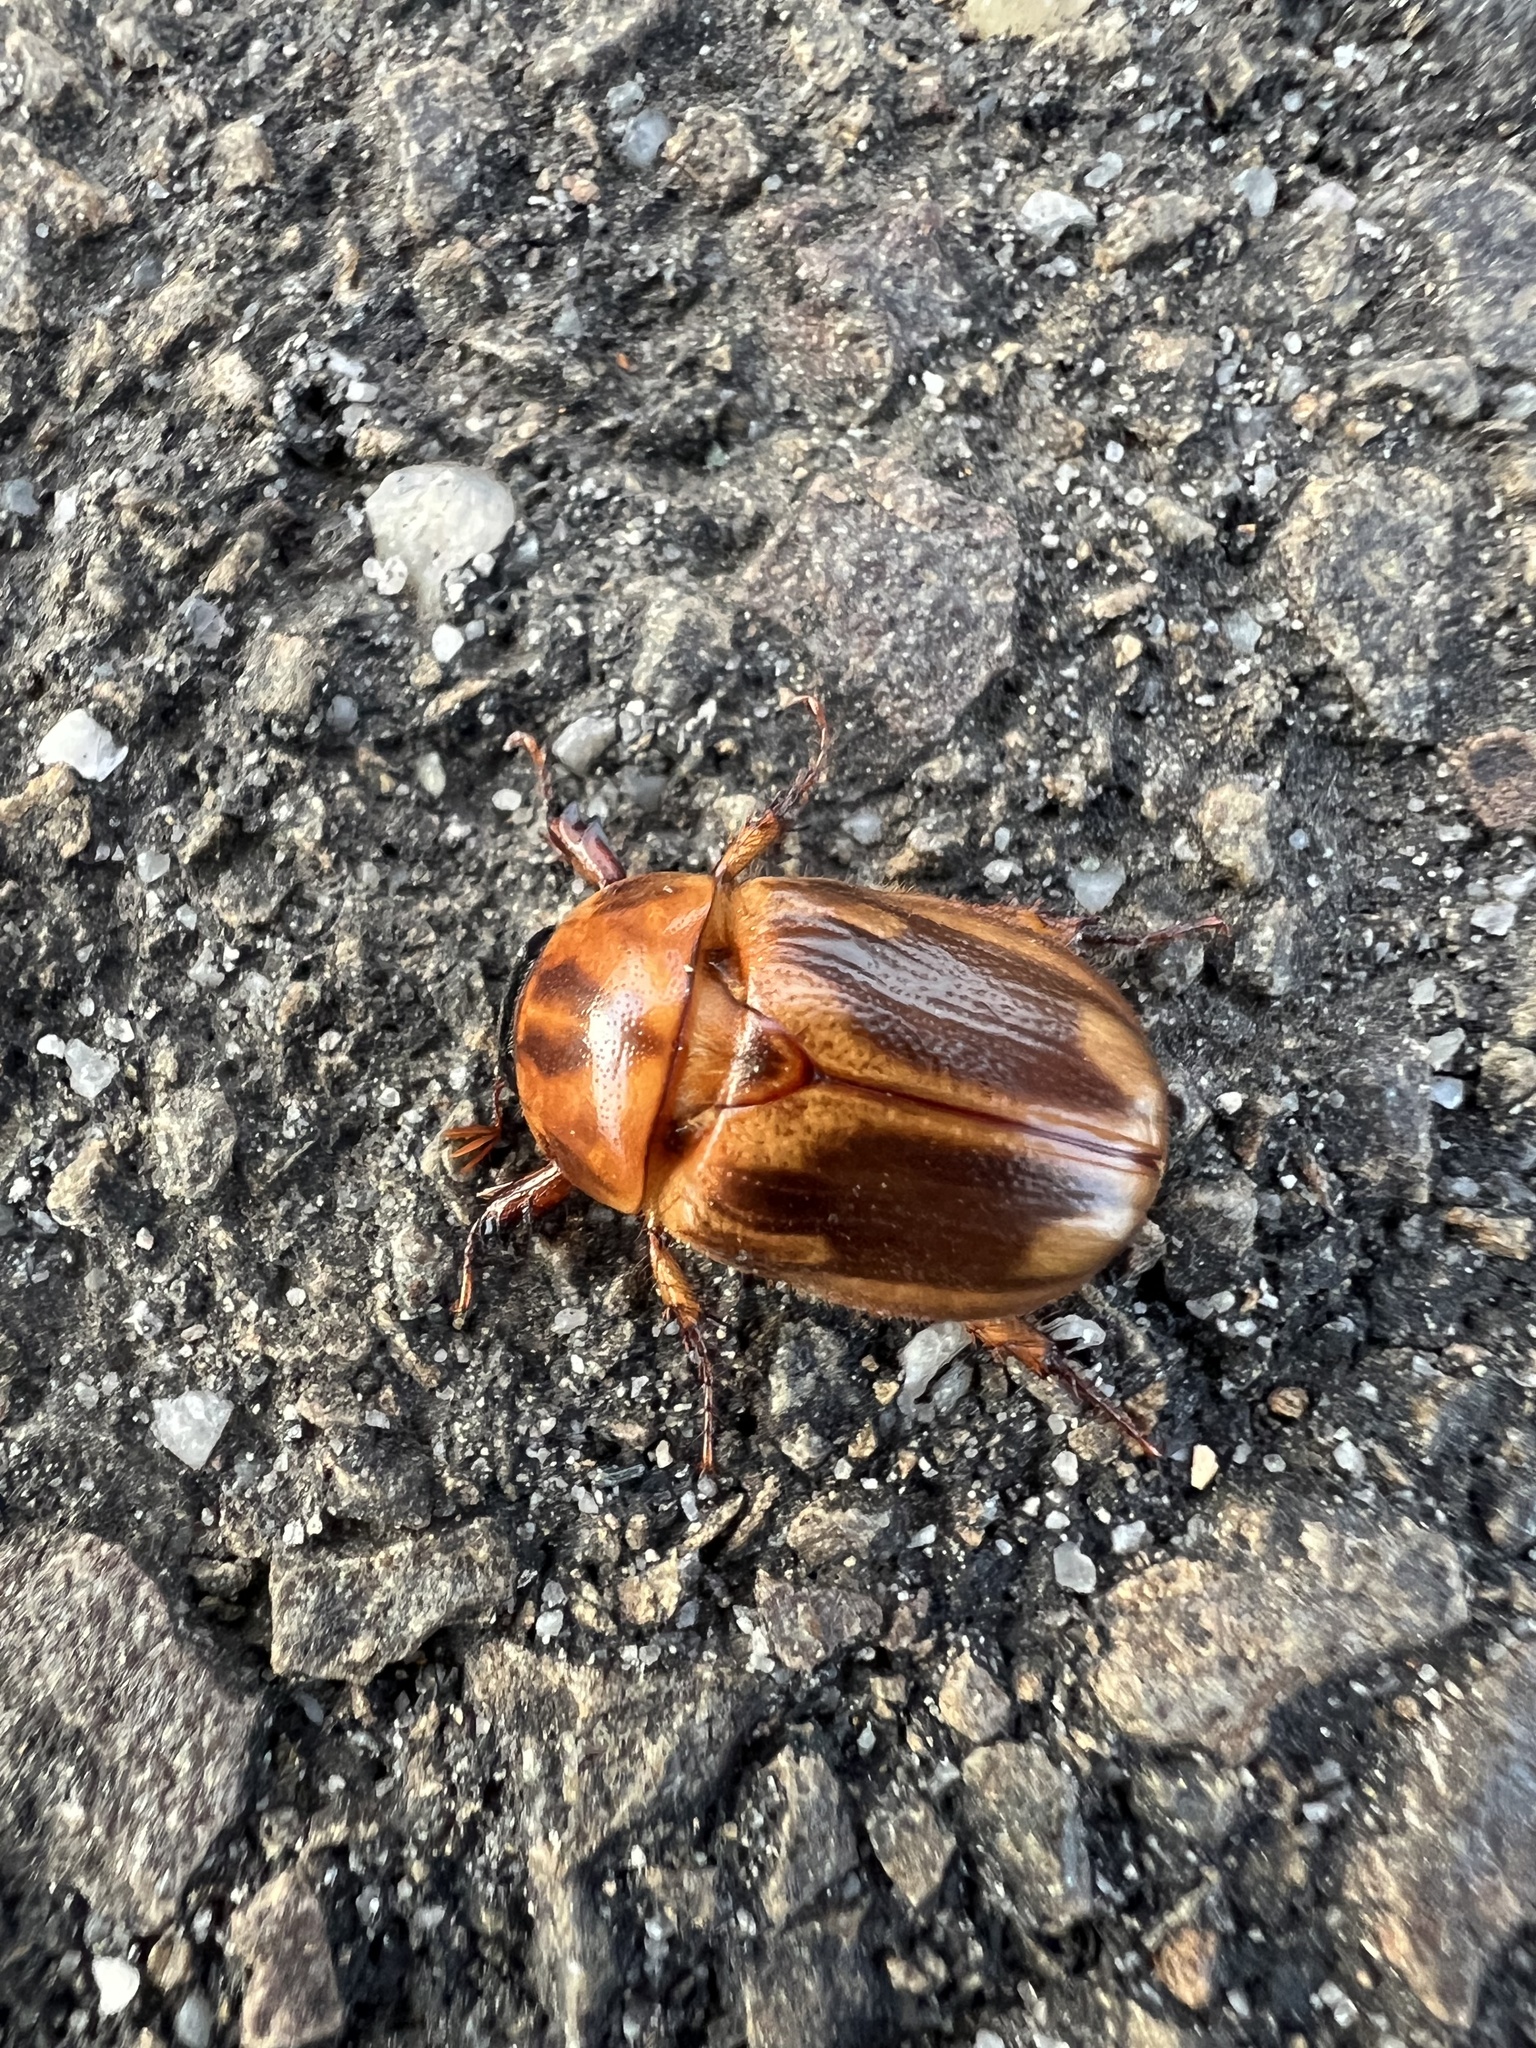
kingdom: Animalia
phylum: Arthropoda
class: Insecta
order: Coleoptera
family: Scarabaeidae
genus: Cyclocephala
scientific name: Cyclocephala signaticollis
